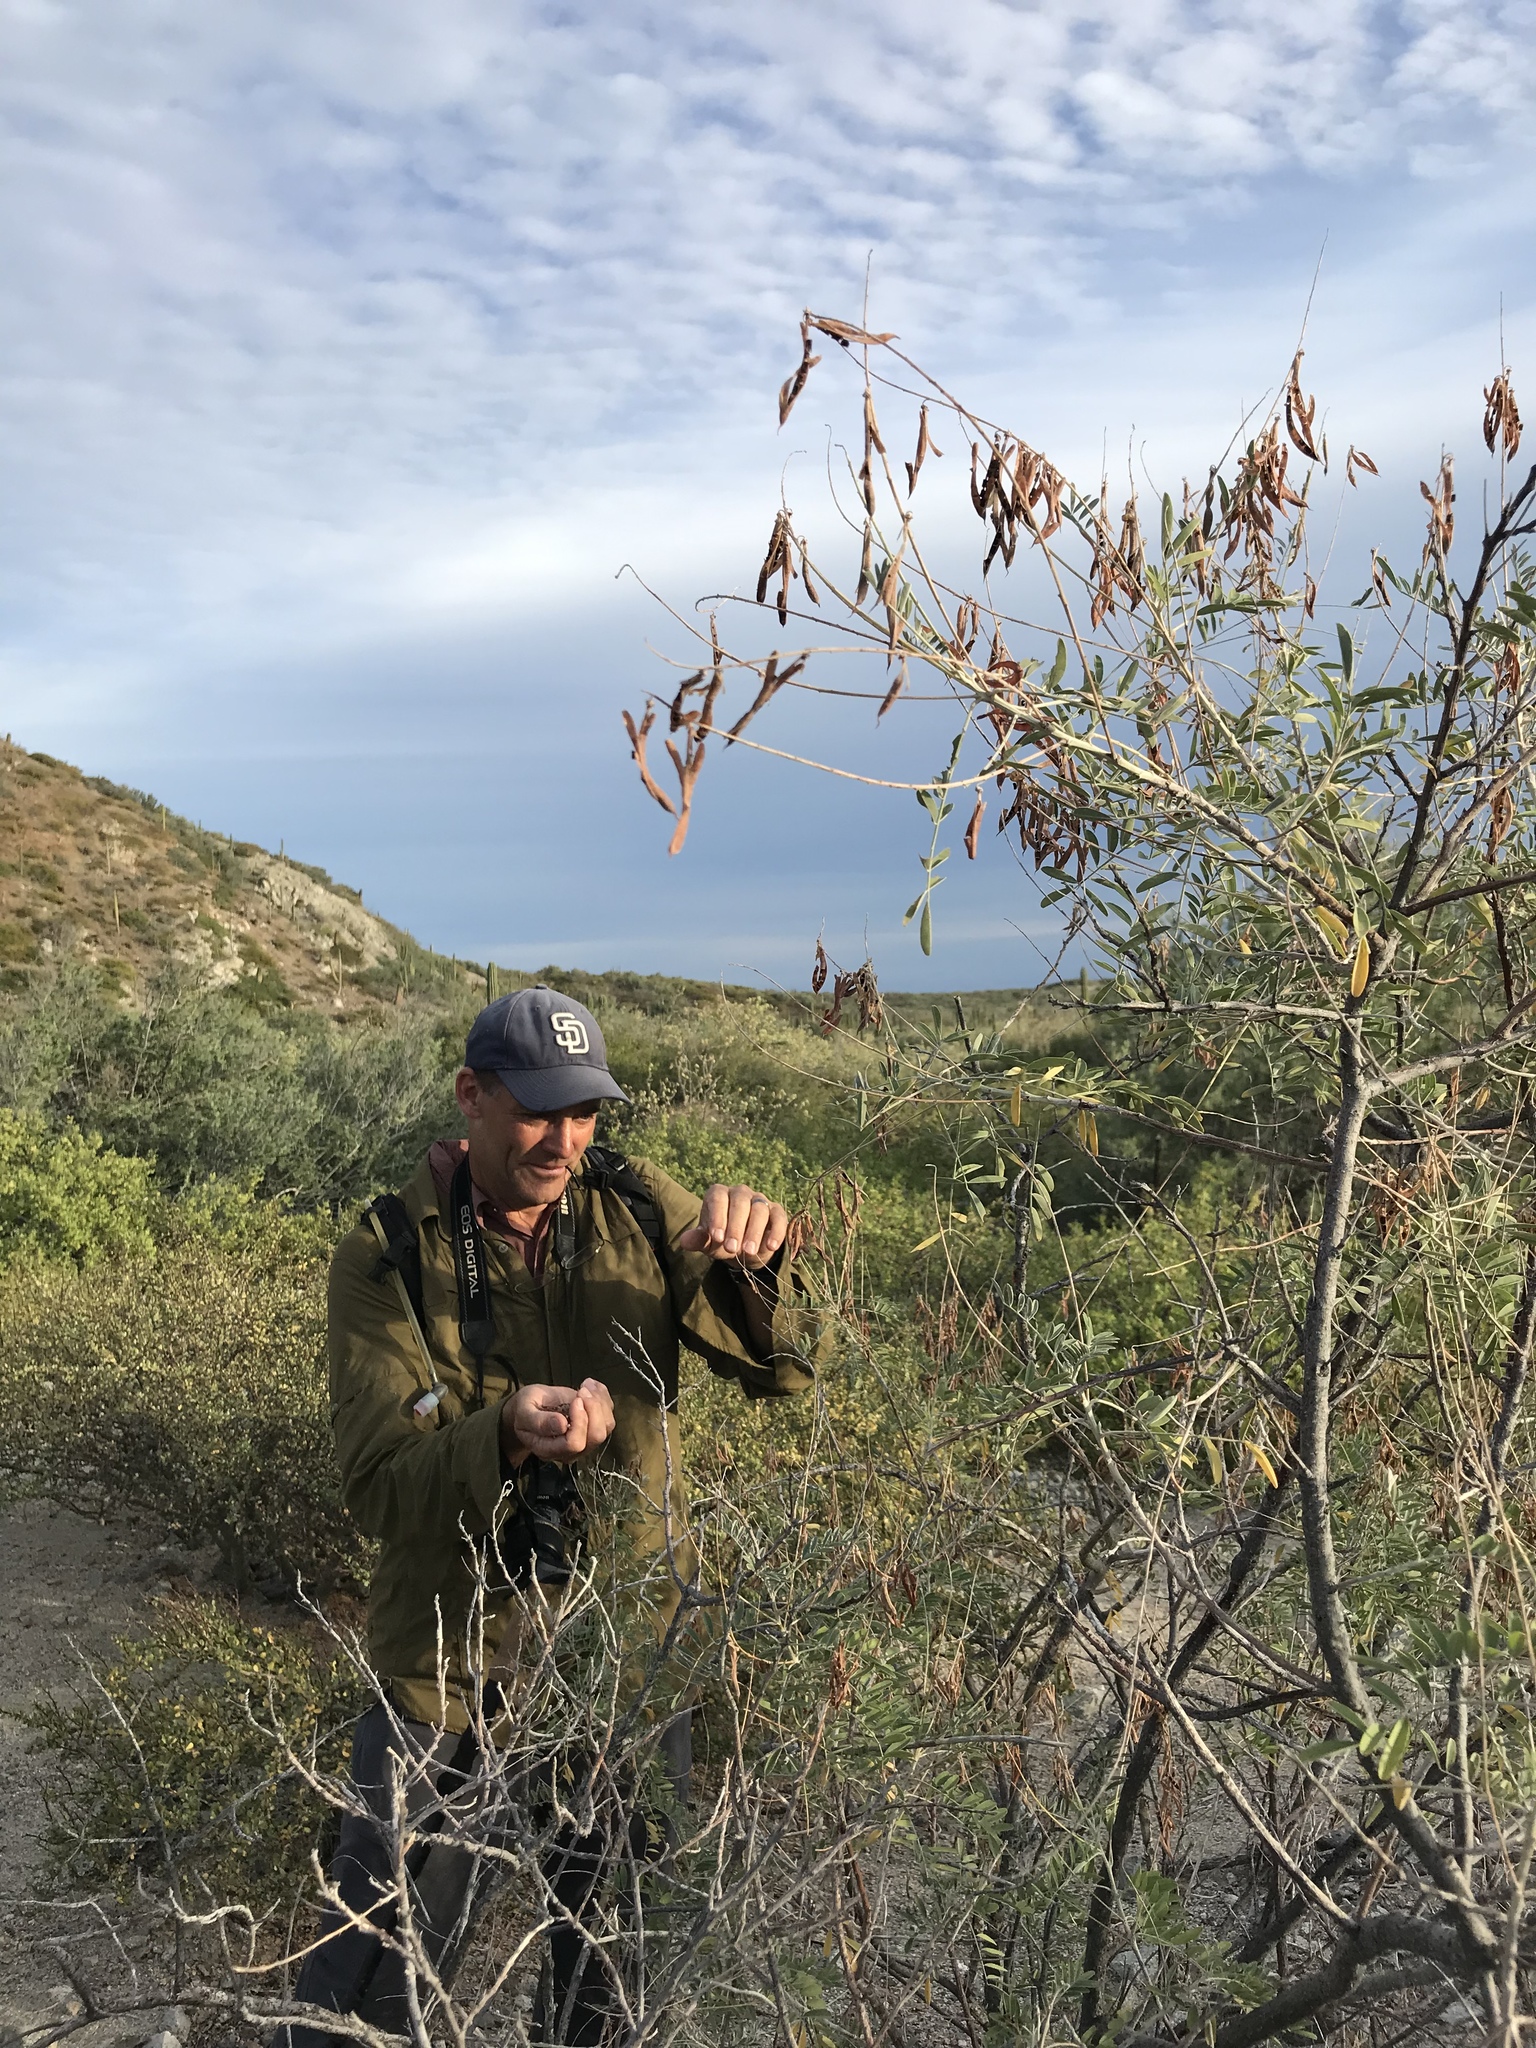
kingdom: Plantae
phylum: Tracheophyta
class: Magnoliopsida
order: Fabales
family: Fabaceae
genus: Indigofera
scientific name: Indigofera
